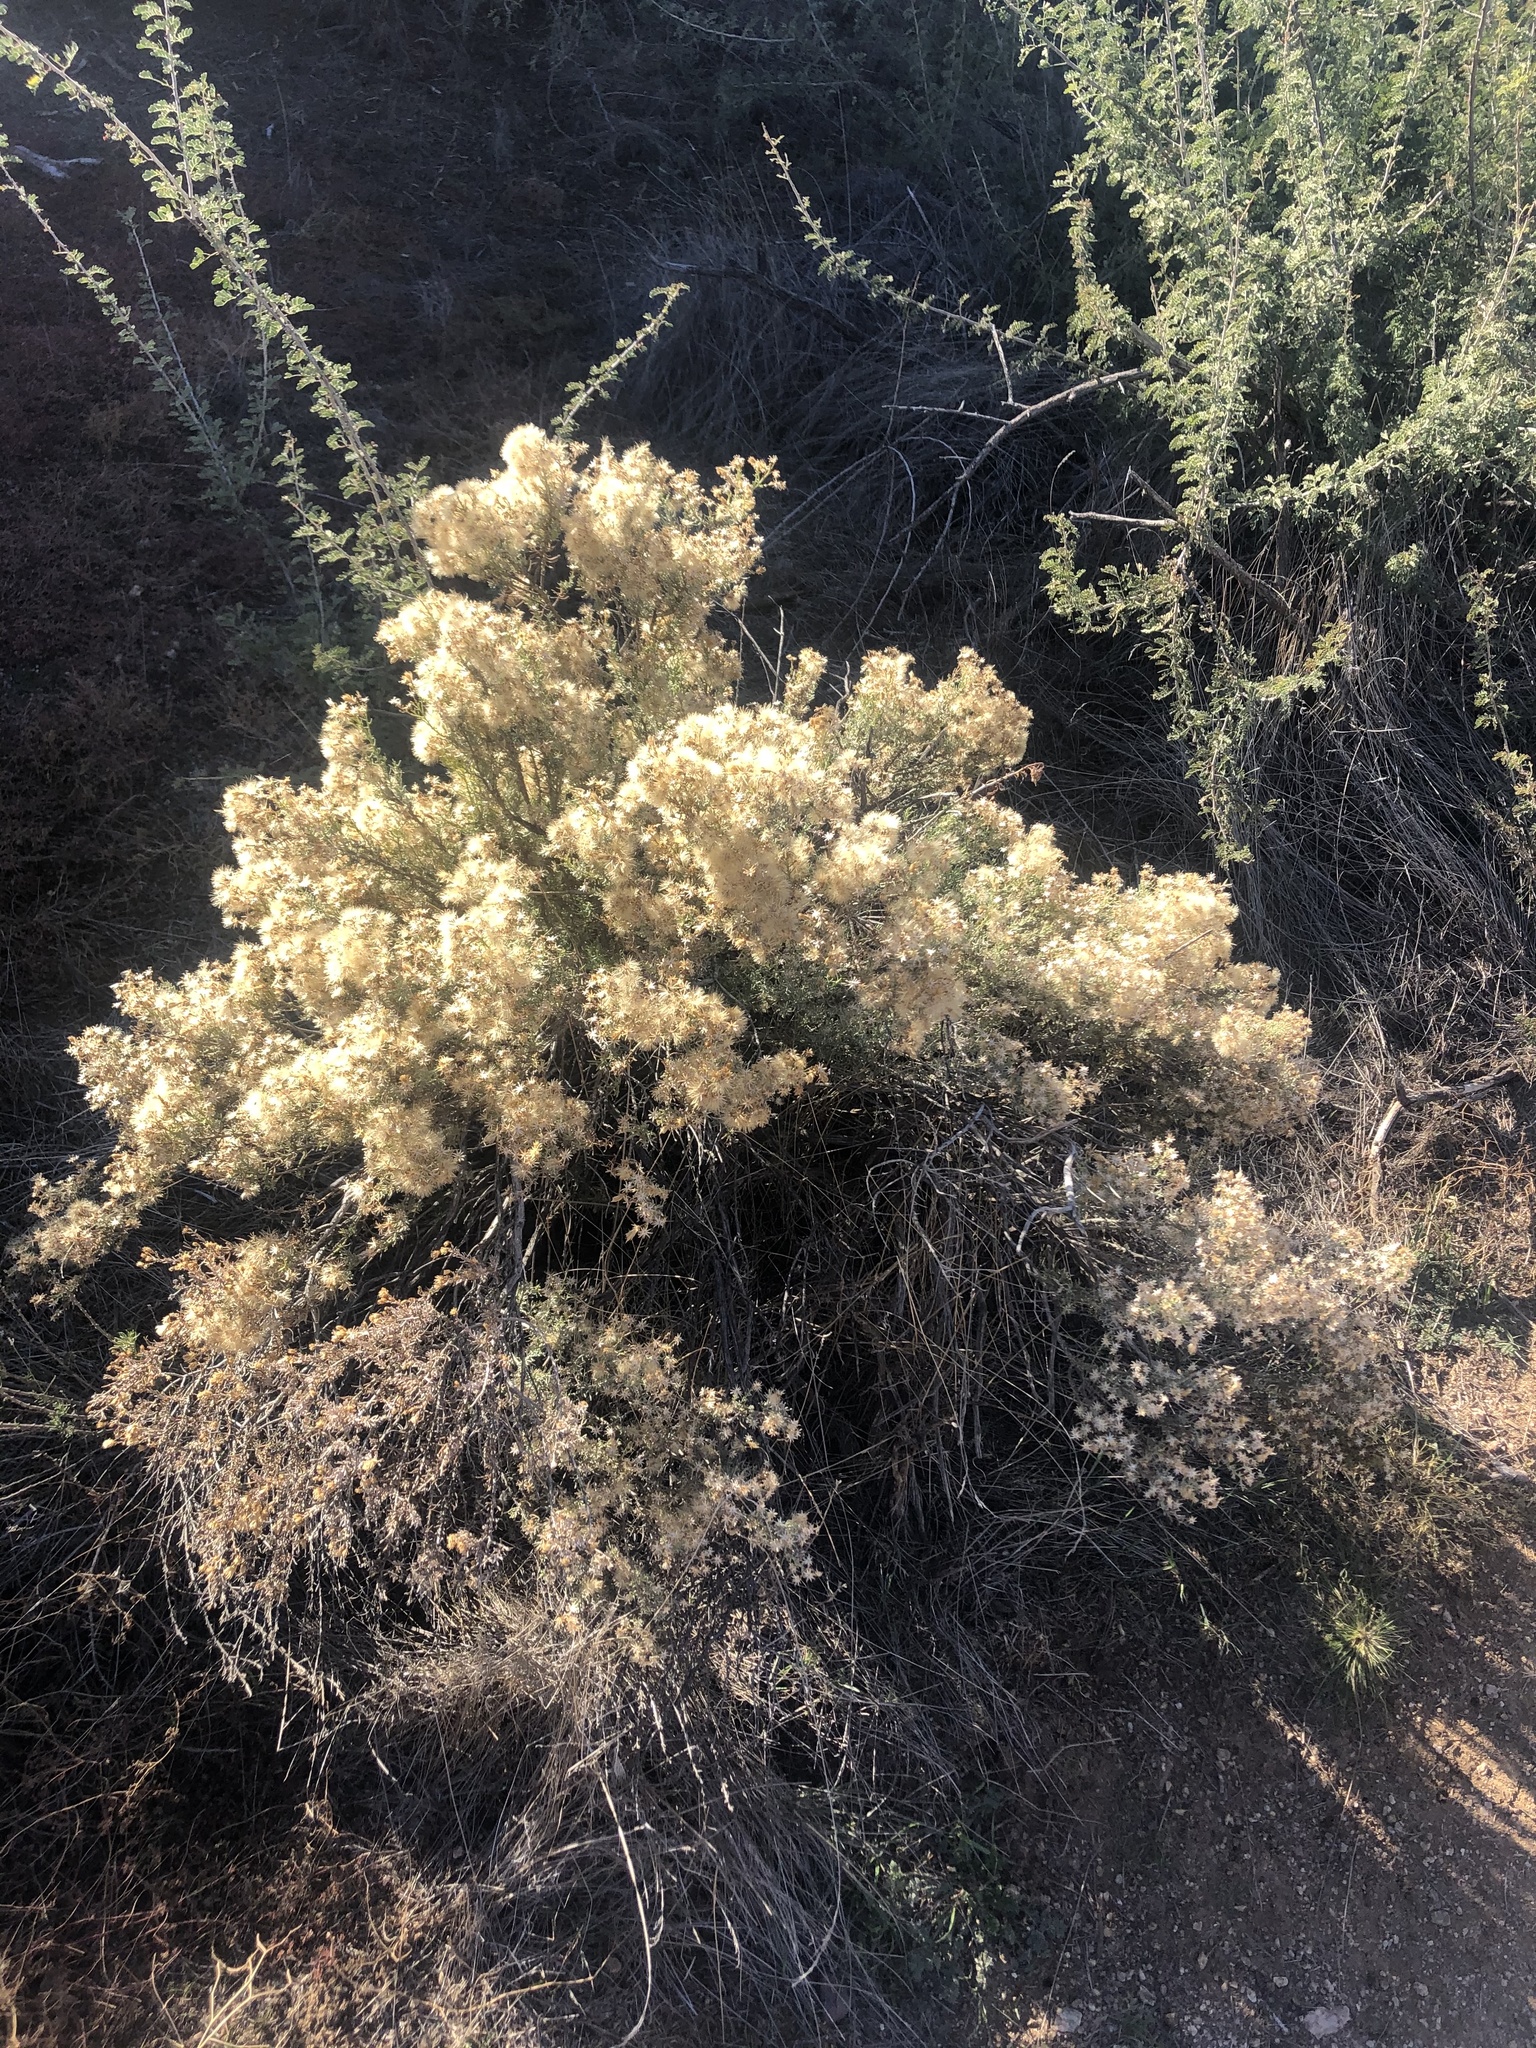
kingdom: Plantae
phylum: Tracheophyta
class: Magnoliopsida
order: Asterales
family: Asteraceae
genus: Ericameria
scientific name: Ericameria laricifolia
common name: Turpentine-bush
